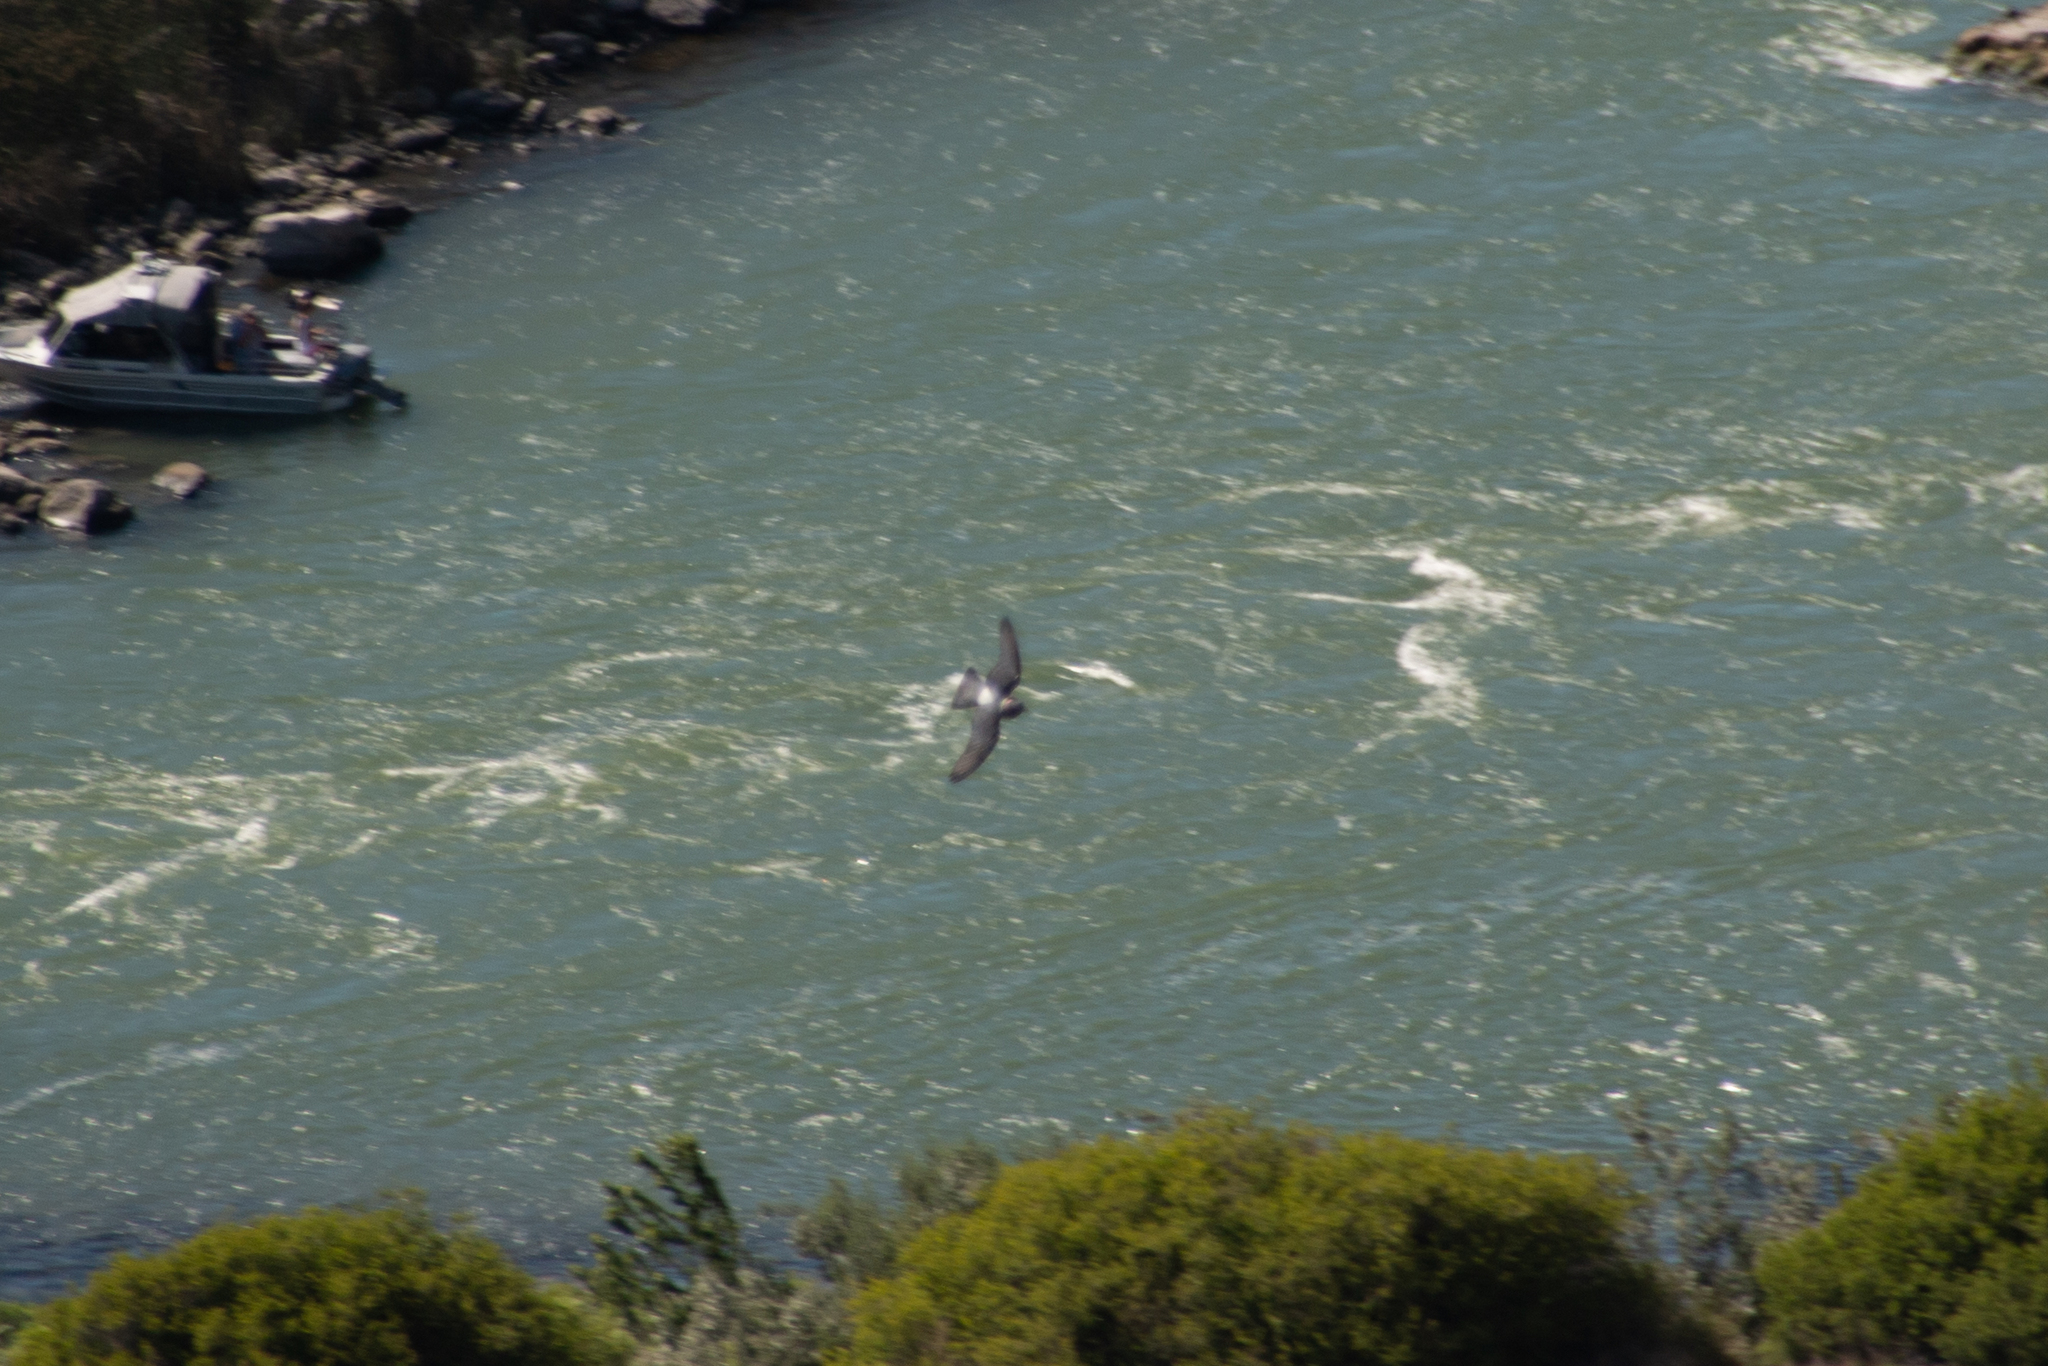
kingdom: Animalia
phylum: Chordata
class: Aves
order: Passeriformes
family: Hirundinidae
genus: Petrochelidon
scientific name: Petrochelidon pyrrhonota
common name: American cliff swallow
